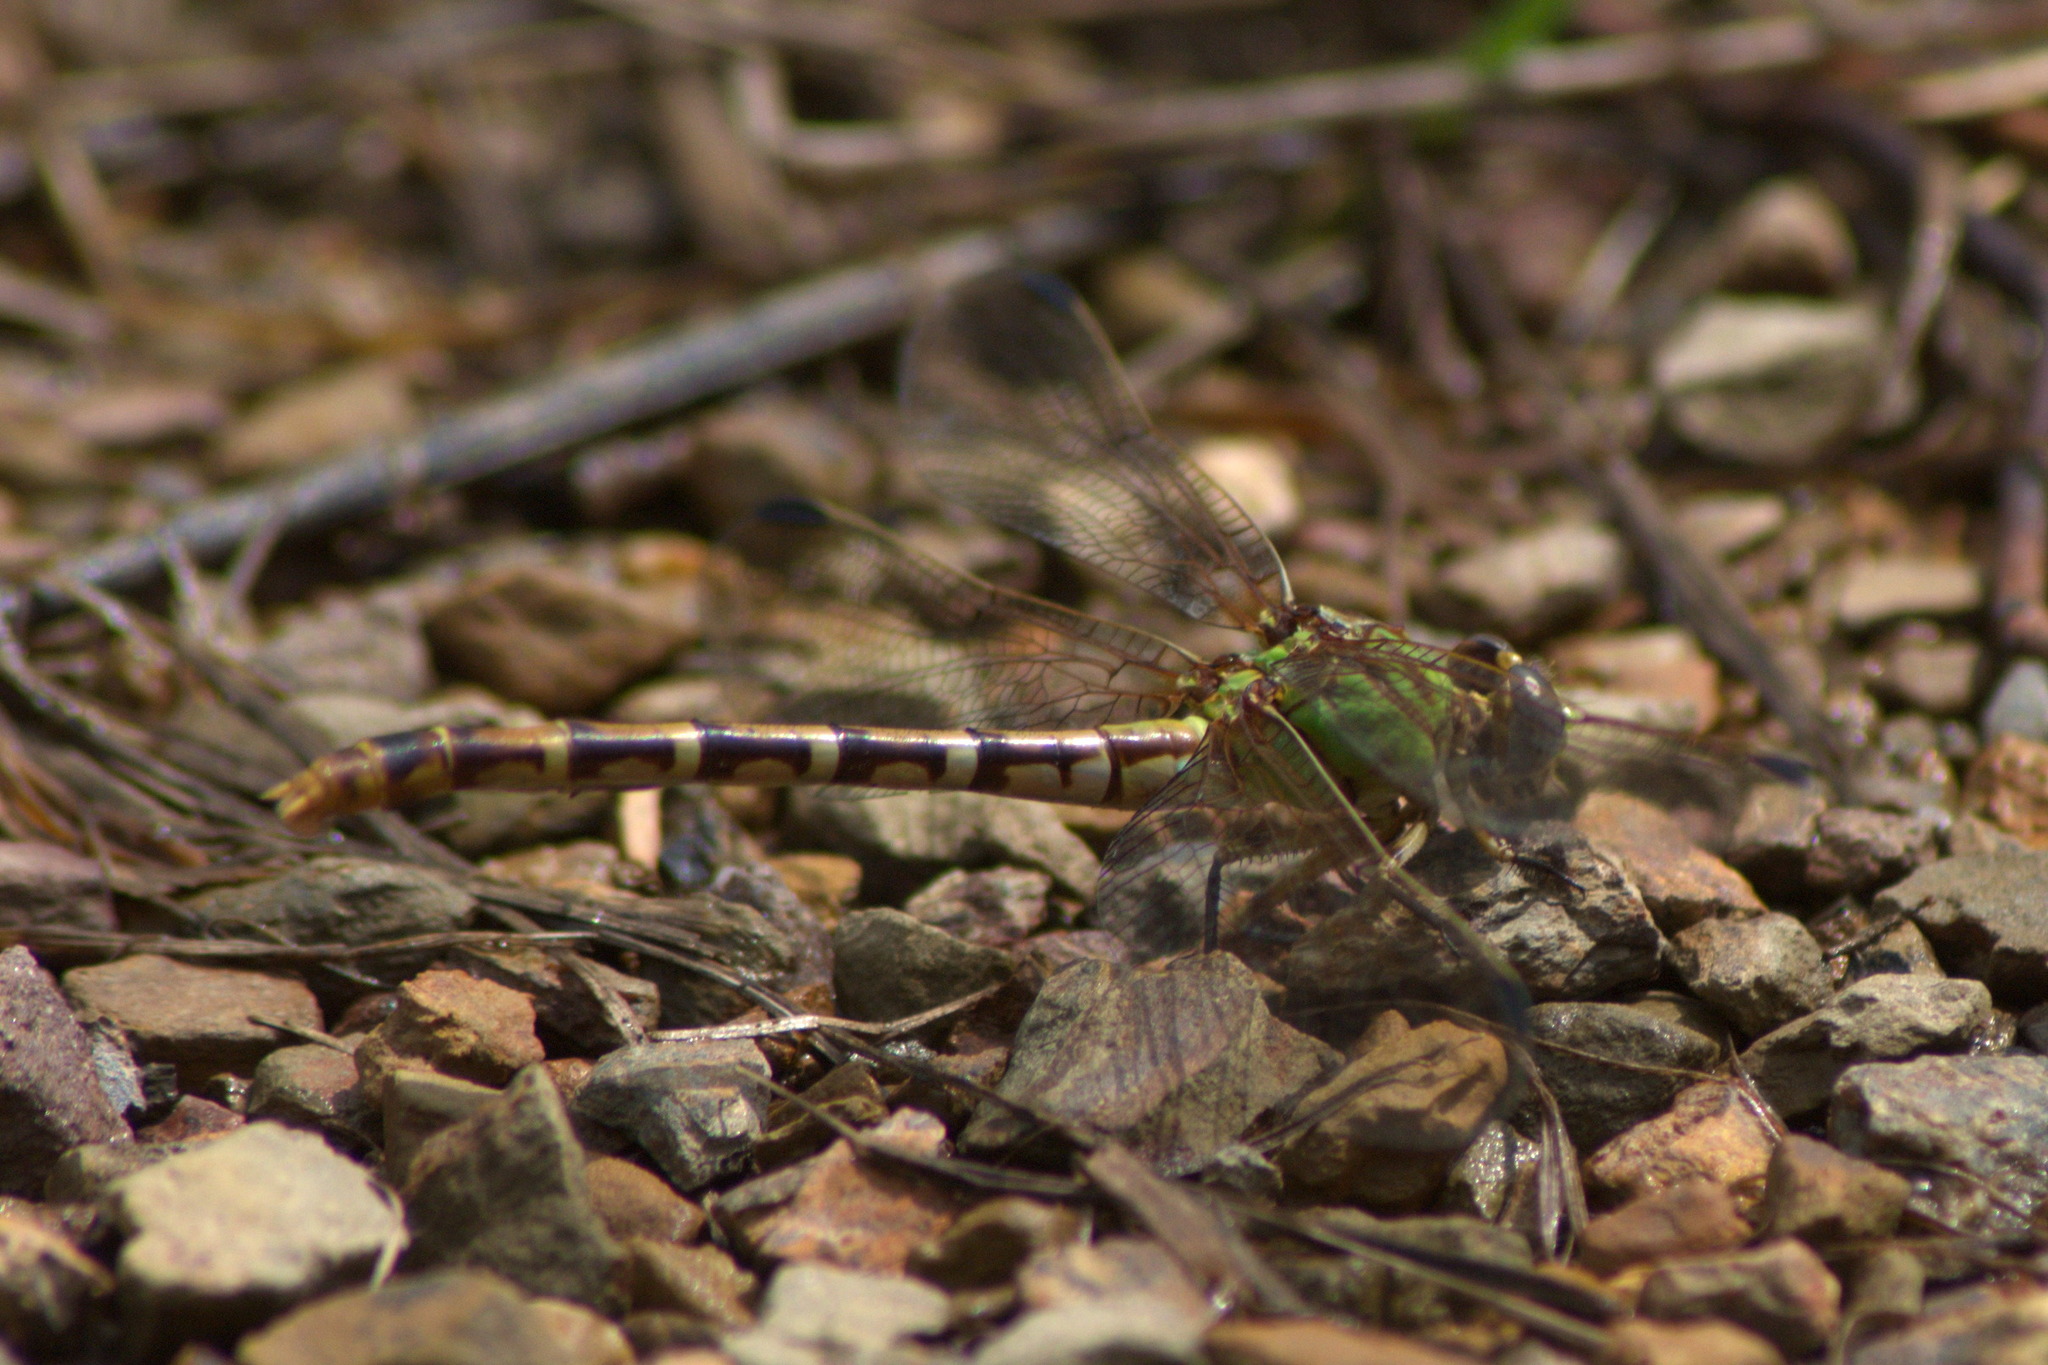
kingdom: Animalia
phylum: Arthropoda
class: Insecta
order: Odonata
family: Gomphidae
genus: Erpetogomphus
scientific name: Erpetogomphus designatus
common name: Eastern ringtail
